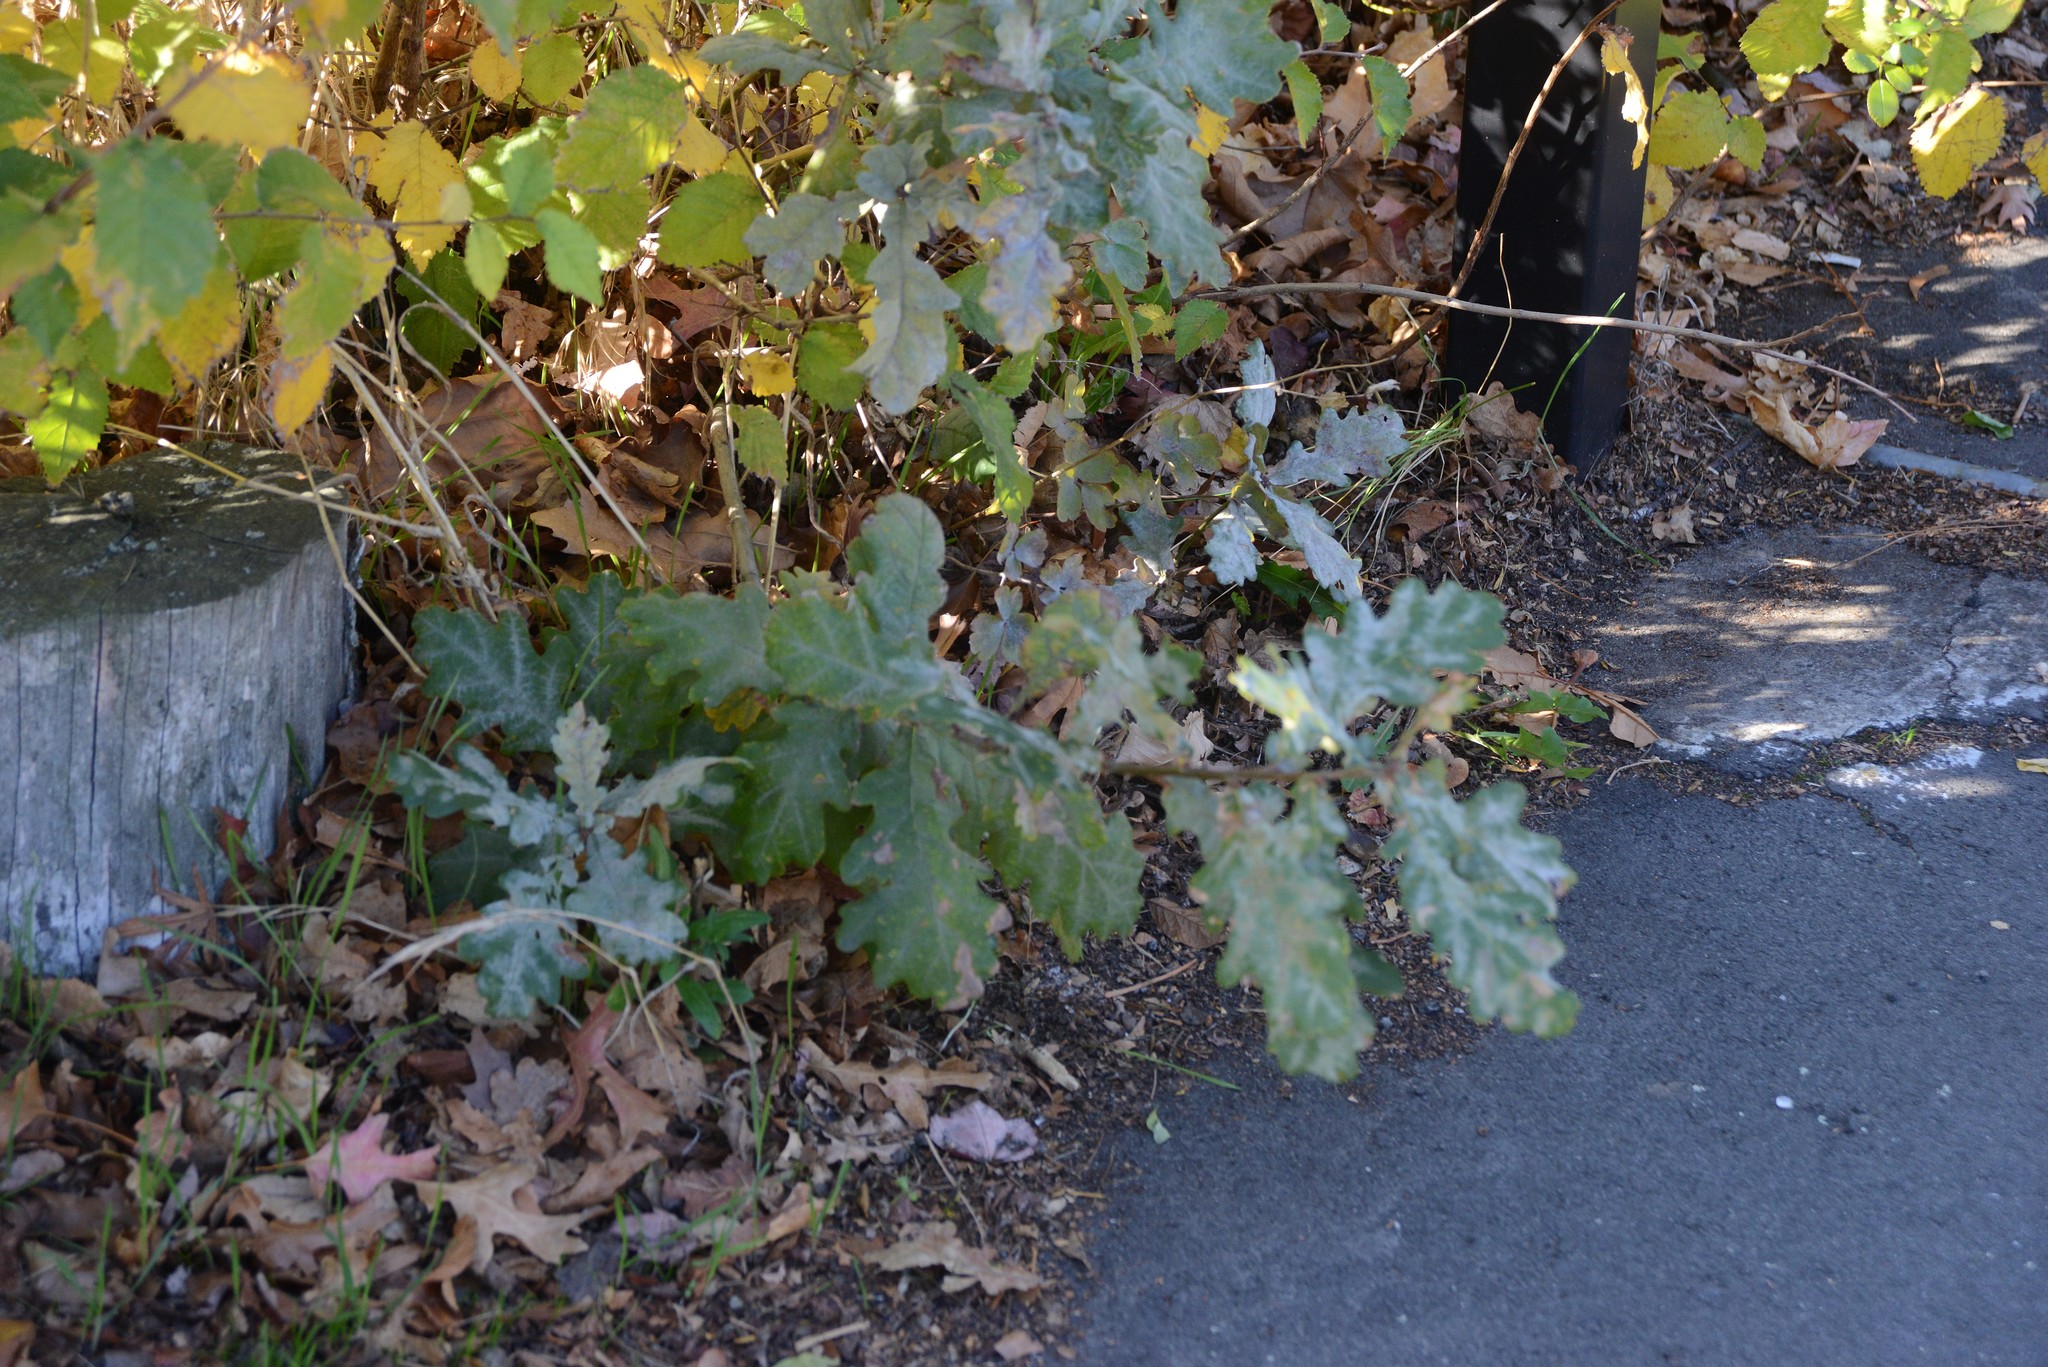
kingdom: Fungi
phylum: Ascomycota
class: Leotiomycetes
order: Helotiales
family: Erysiphaceae
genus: Erysiphe
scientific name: Erysiphe alphitoides
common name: Oak mildew
